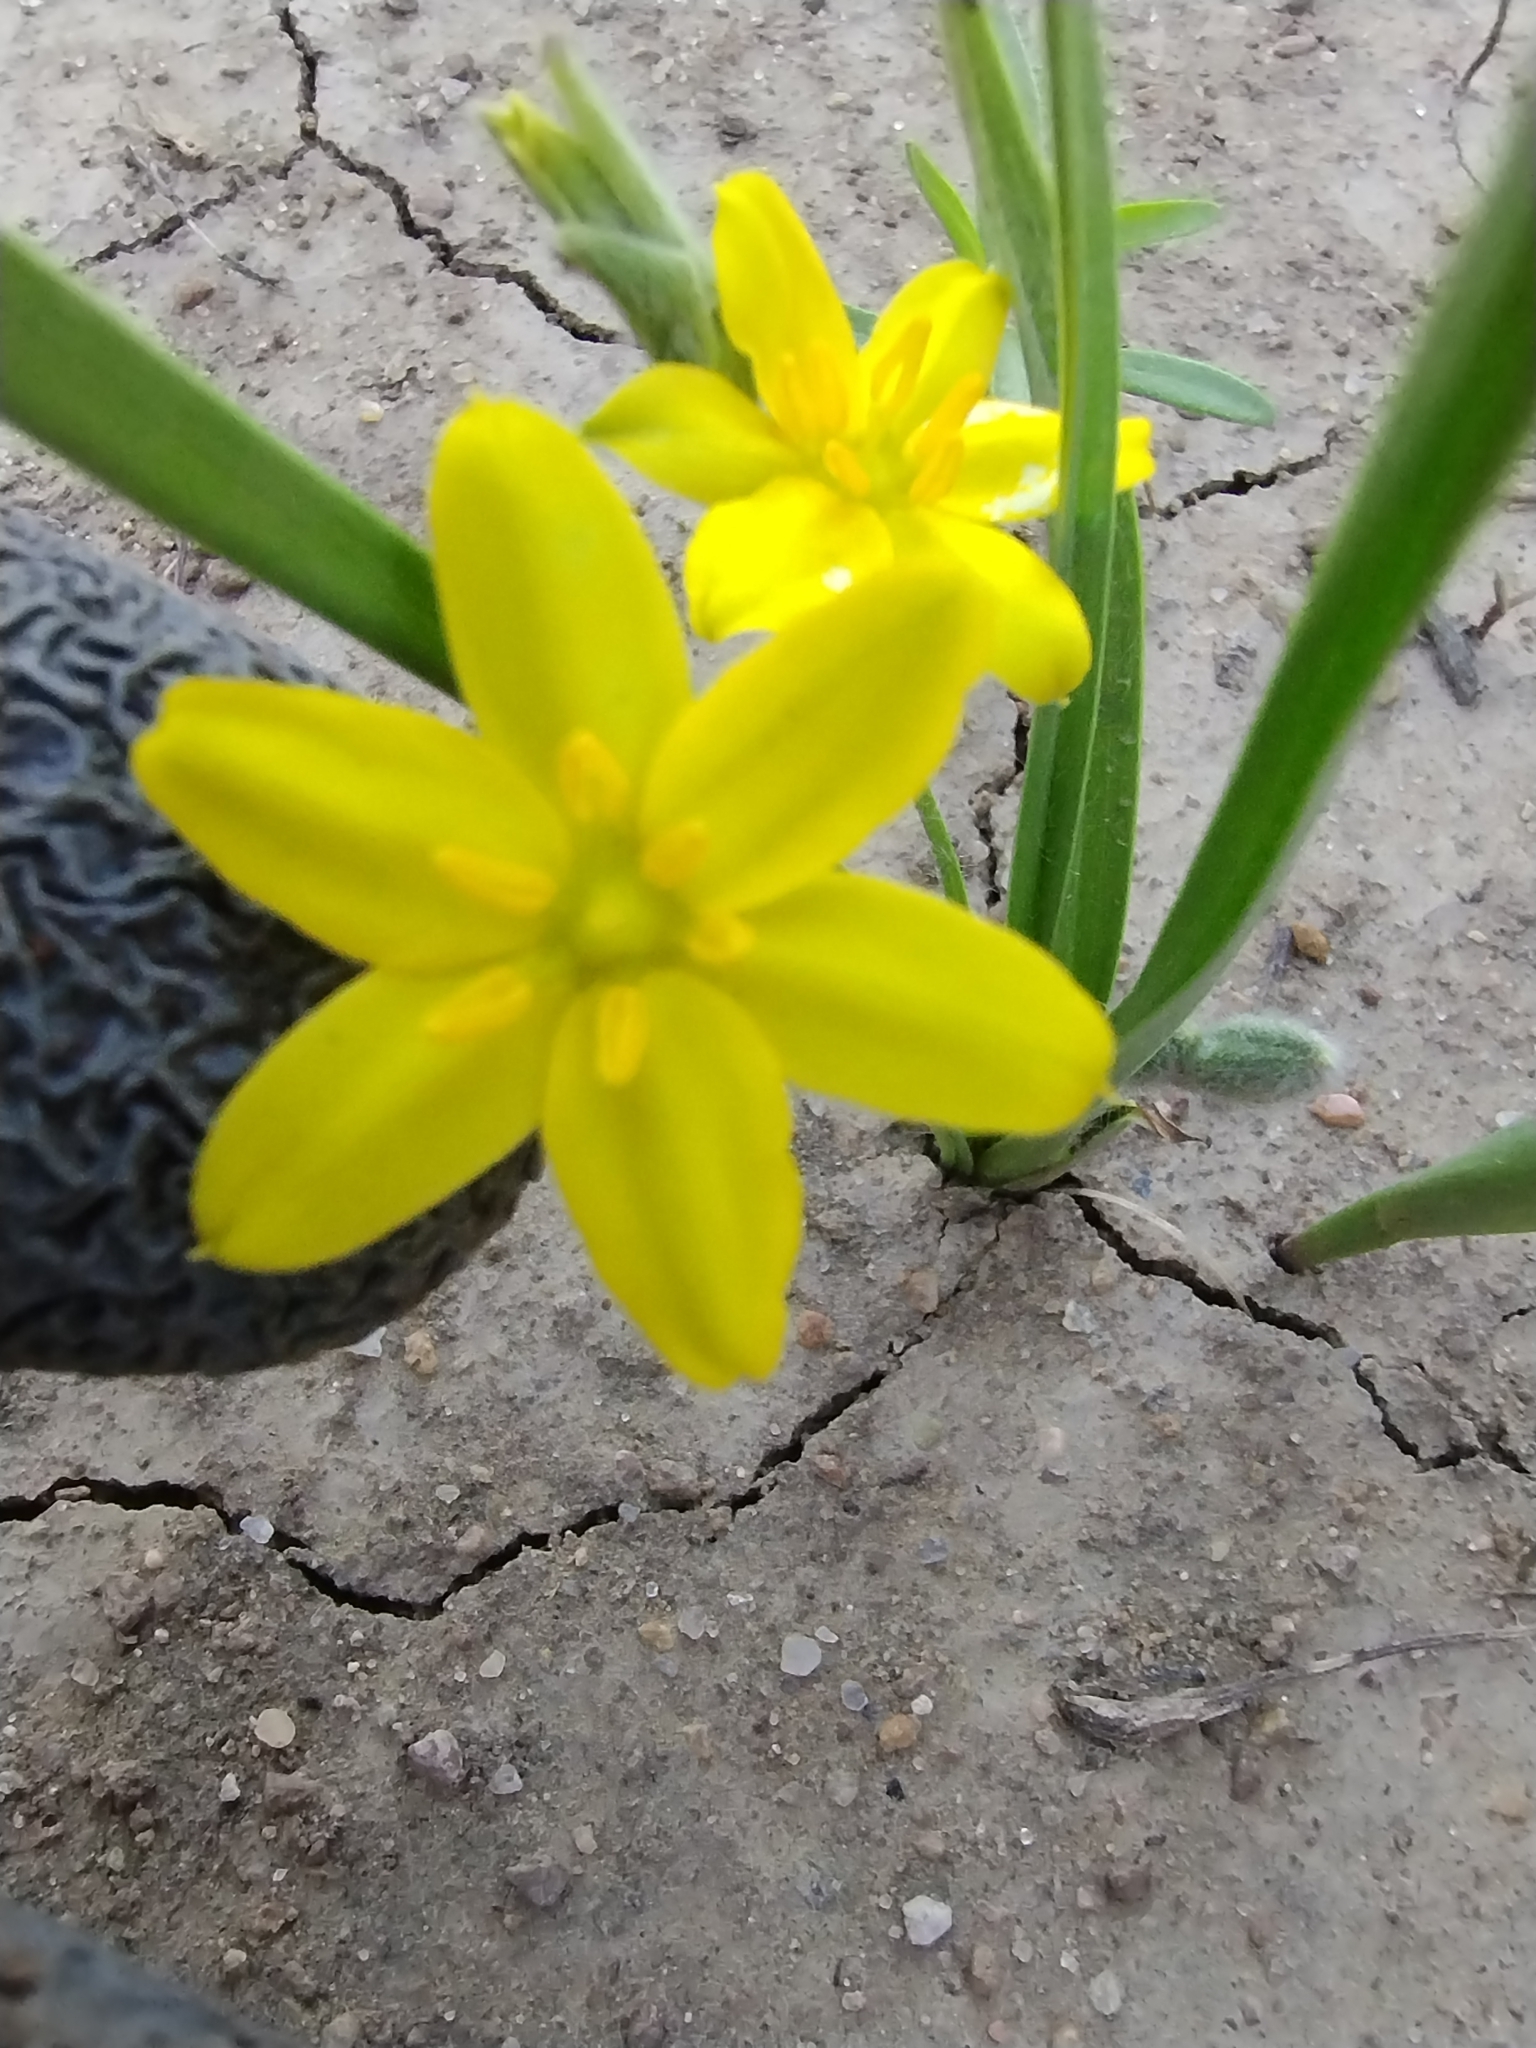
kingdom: Plantae
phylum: Tracheophyta
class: Liliopsida
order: Asparagales
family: Hypoxidaceae
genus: Hypoxis
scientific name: Hypoxis hirsuta
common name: Common goldstar
